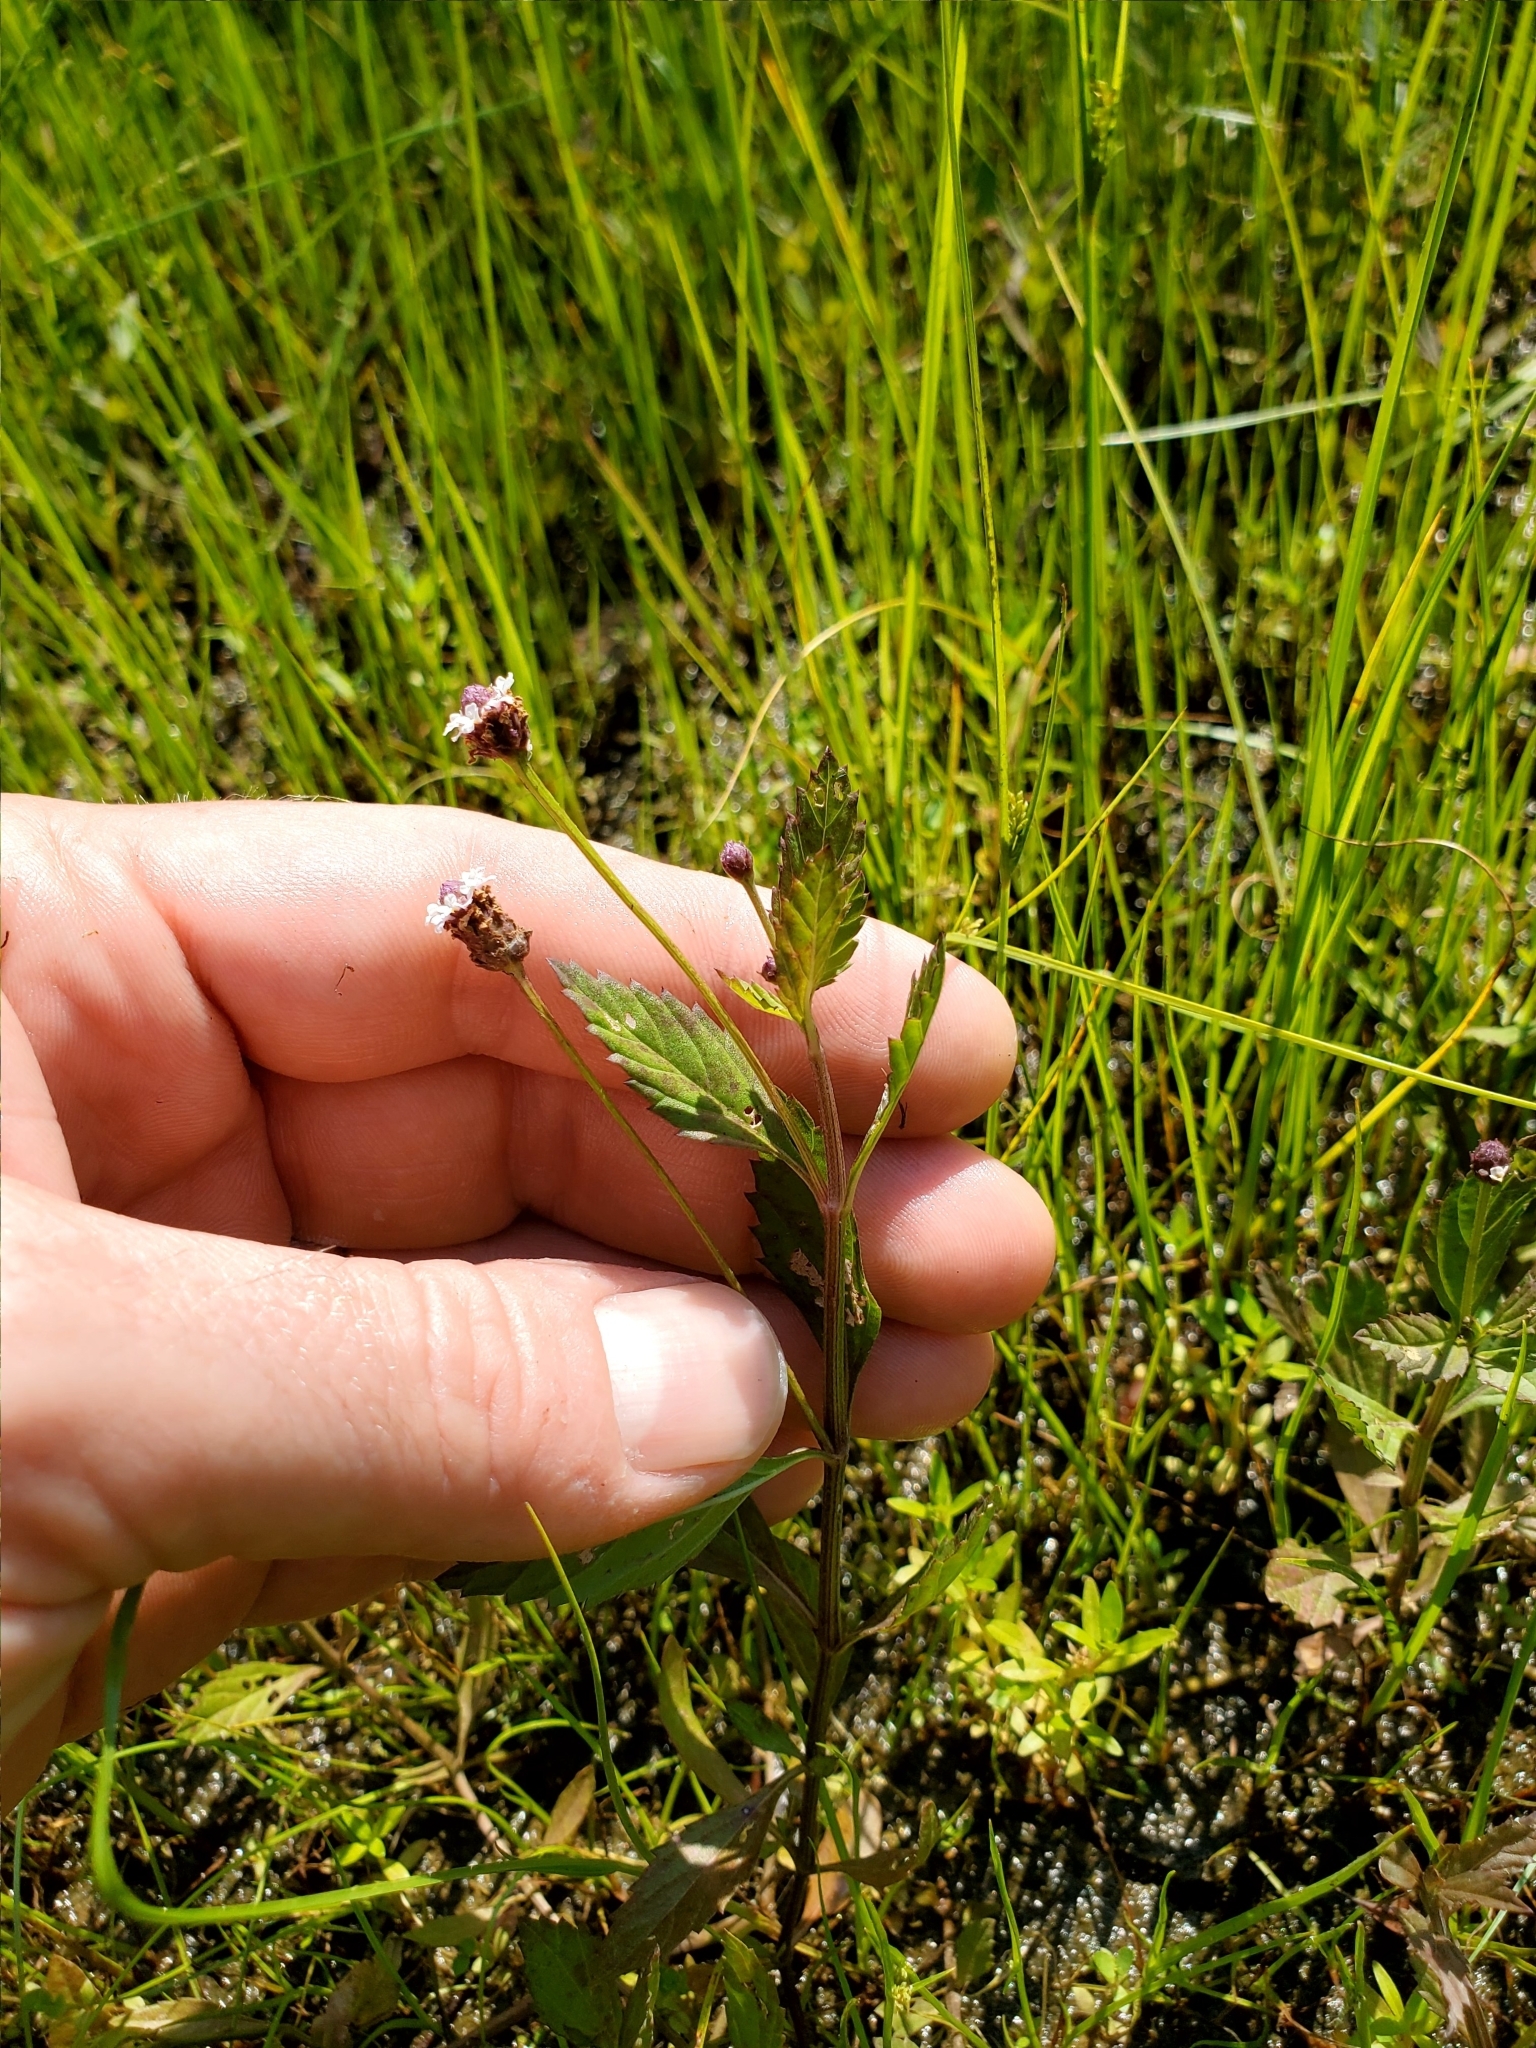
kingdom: Plantae
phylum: Tracheophyta
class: Magnoliopsida
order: Lamiales
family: Verbenaceae
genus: Phyla
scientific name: Phyla lanceolata
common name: Northern fogfruit
